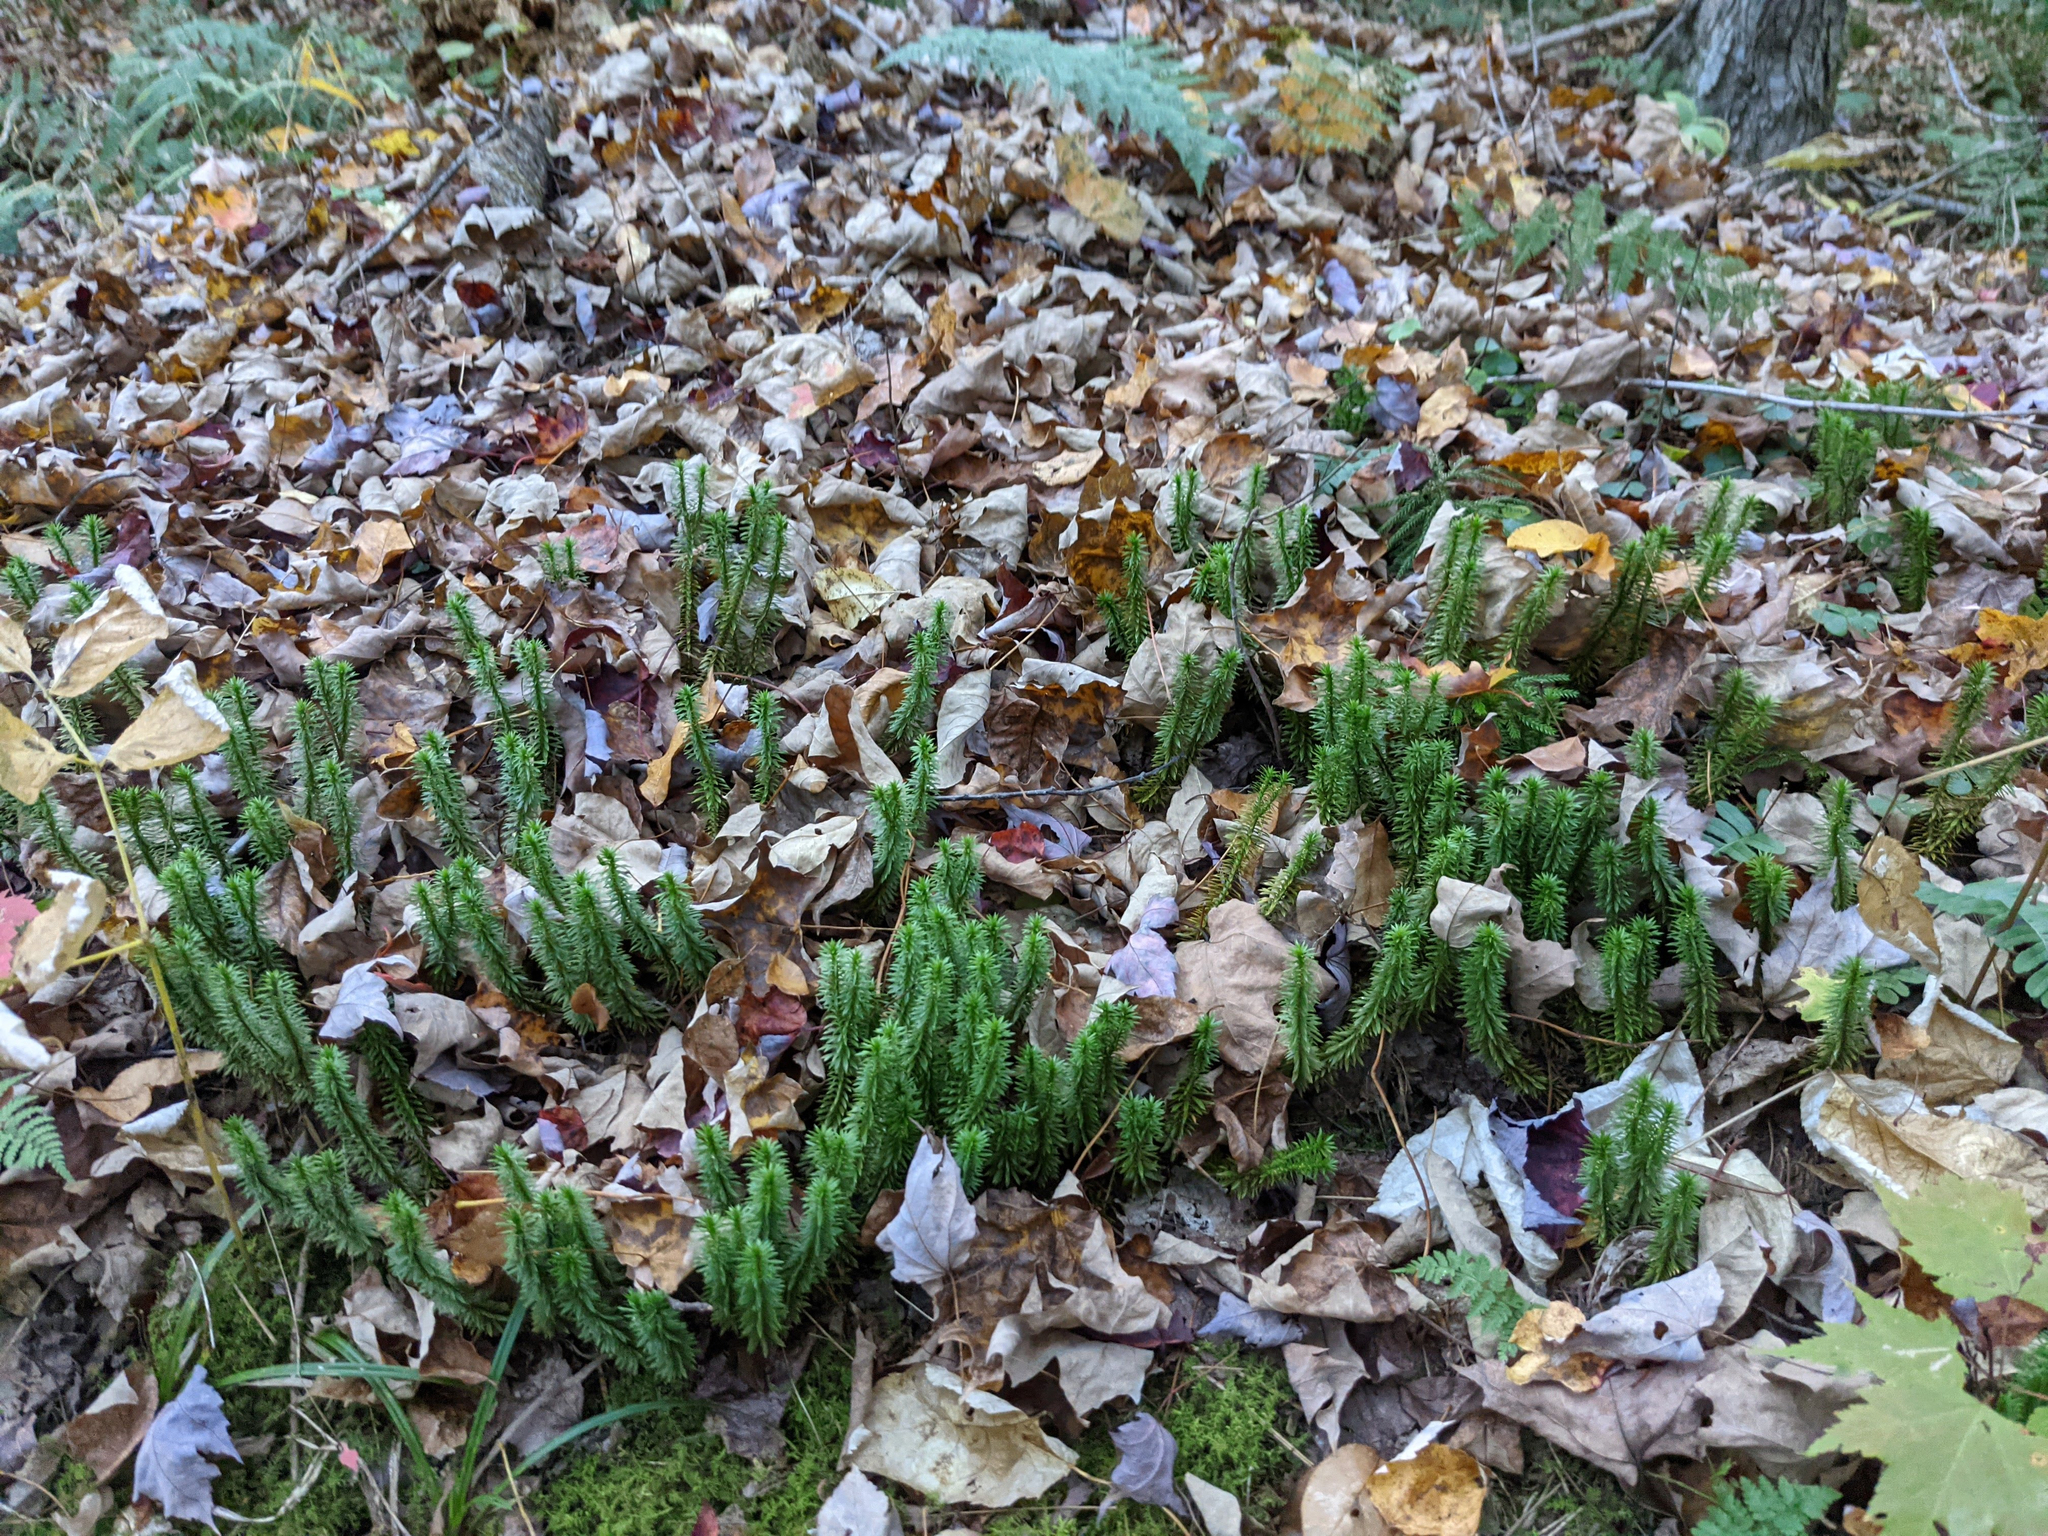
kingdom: Plantae
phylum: Tracheophyta
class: Lycopodiopsida
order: Lycopodiales
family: Lycopodiaceae
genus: Huperzia
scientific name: Huperzia lucidula
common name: Shining clubmoss
